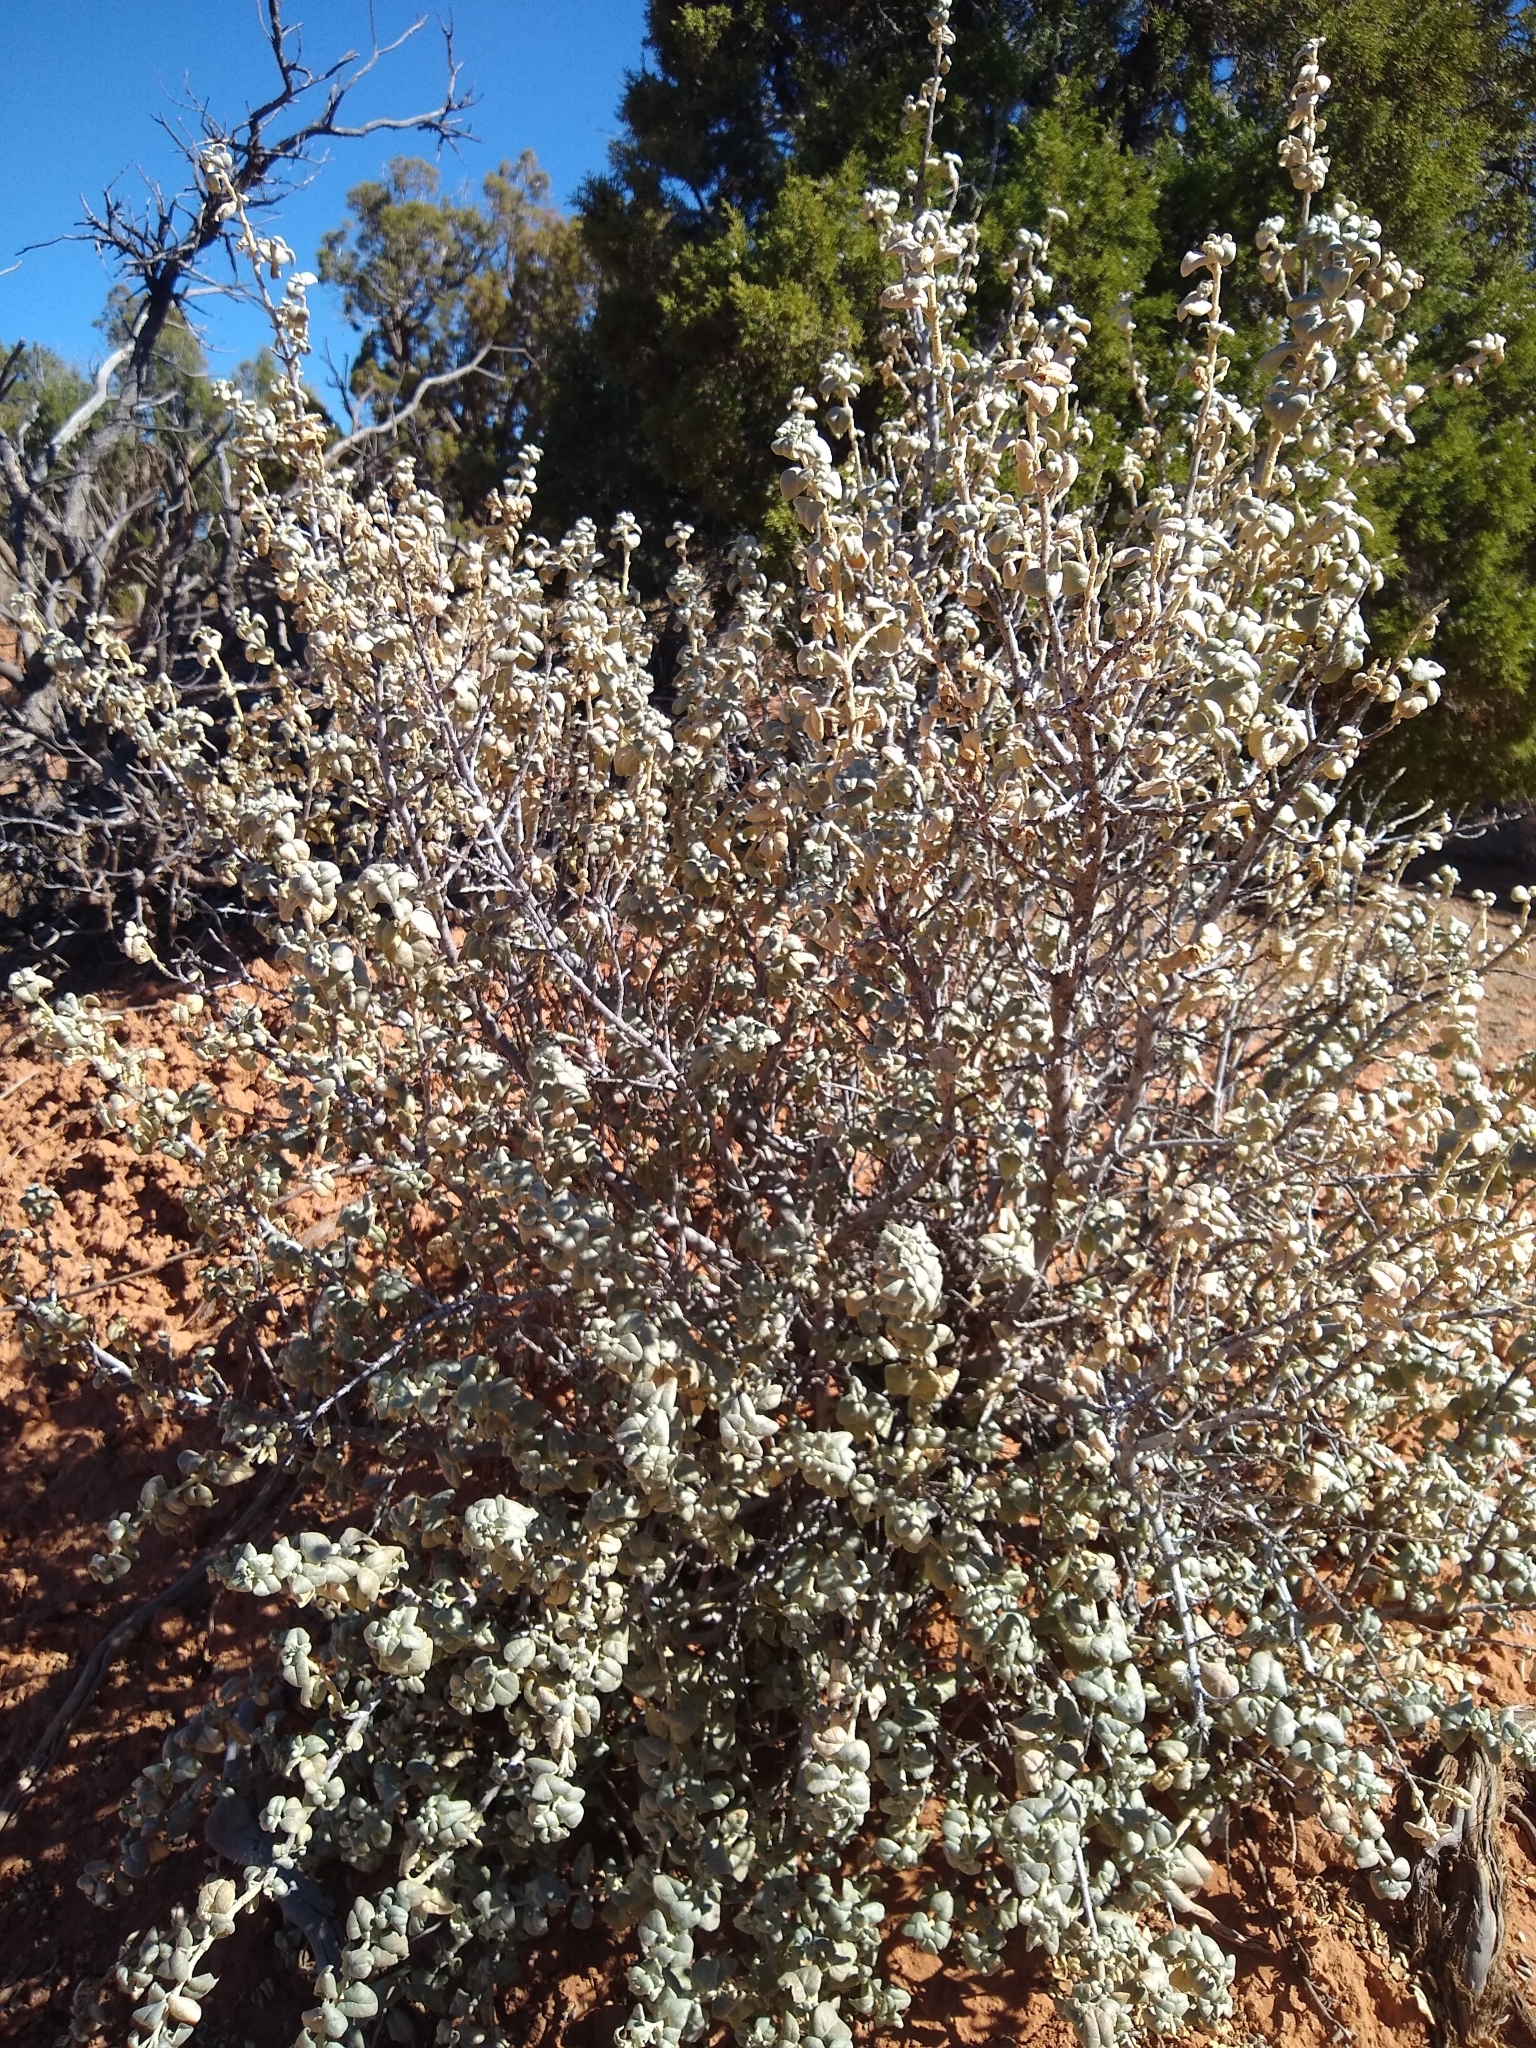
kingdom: Plantae
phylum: Tracheophyta
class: Magnoliopsida
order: Rosales
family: Elaeagnaceae
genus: Shepherdia
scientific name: Shepherdia rotundifolia
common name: Silverscale
